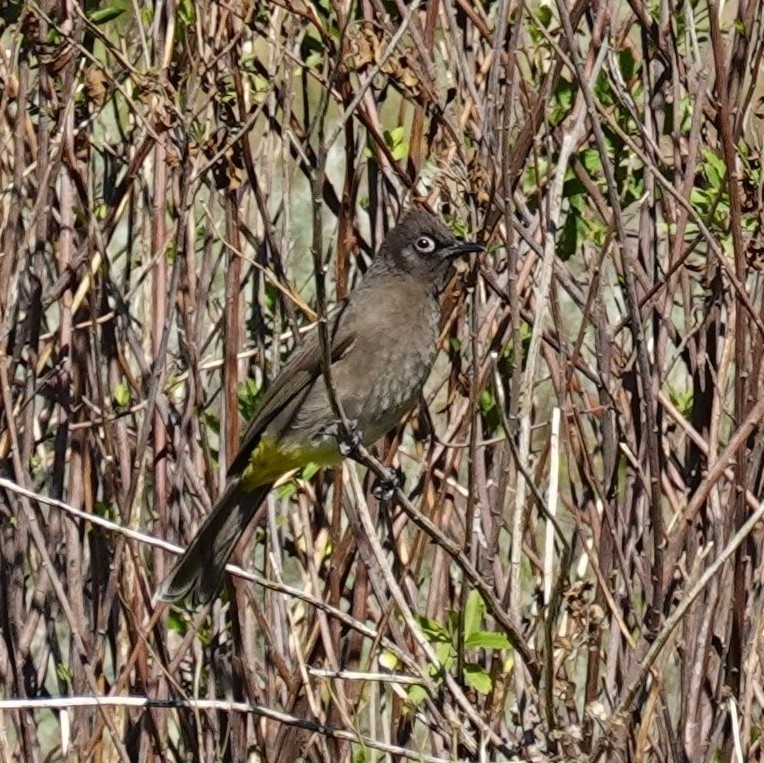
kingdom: Animalia
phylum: Chordata
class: Aves
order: Passeriformes
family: Pycnonotidae
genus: Pycnonotus
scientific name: Pycnonotus capensis
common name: Cape bulbul
